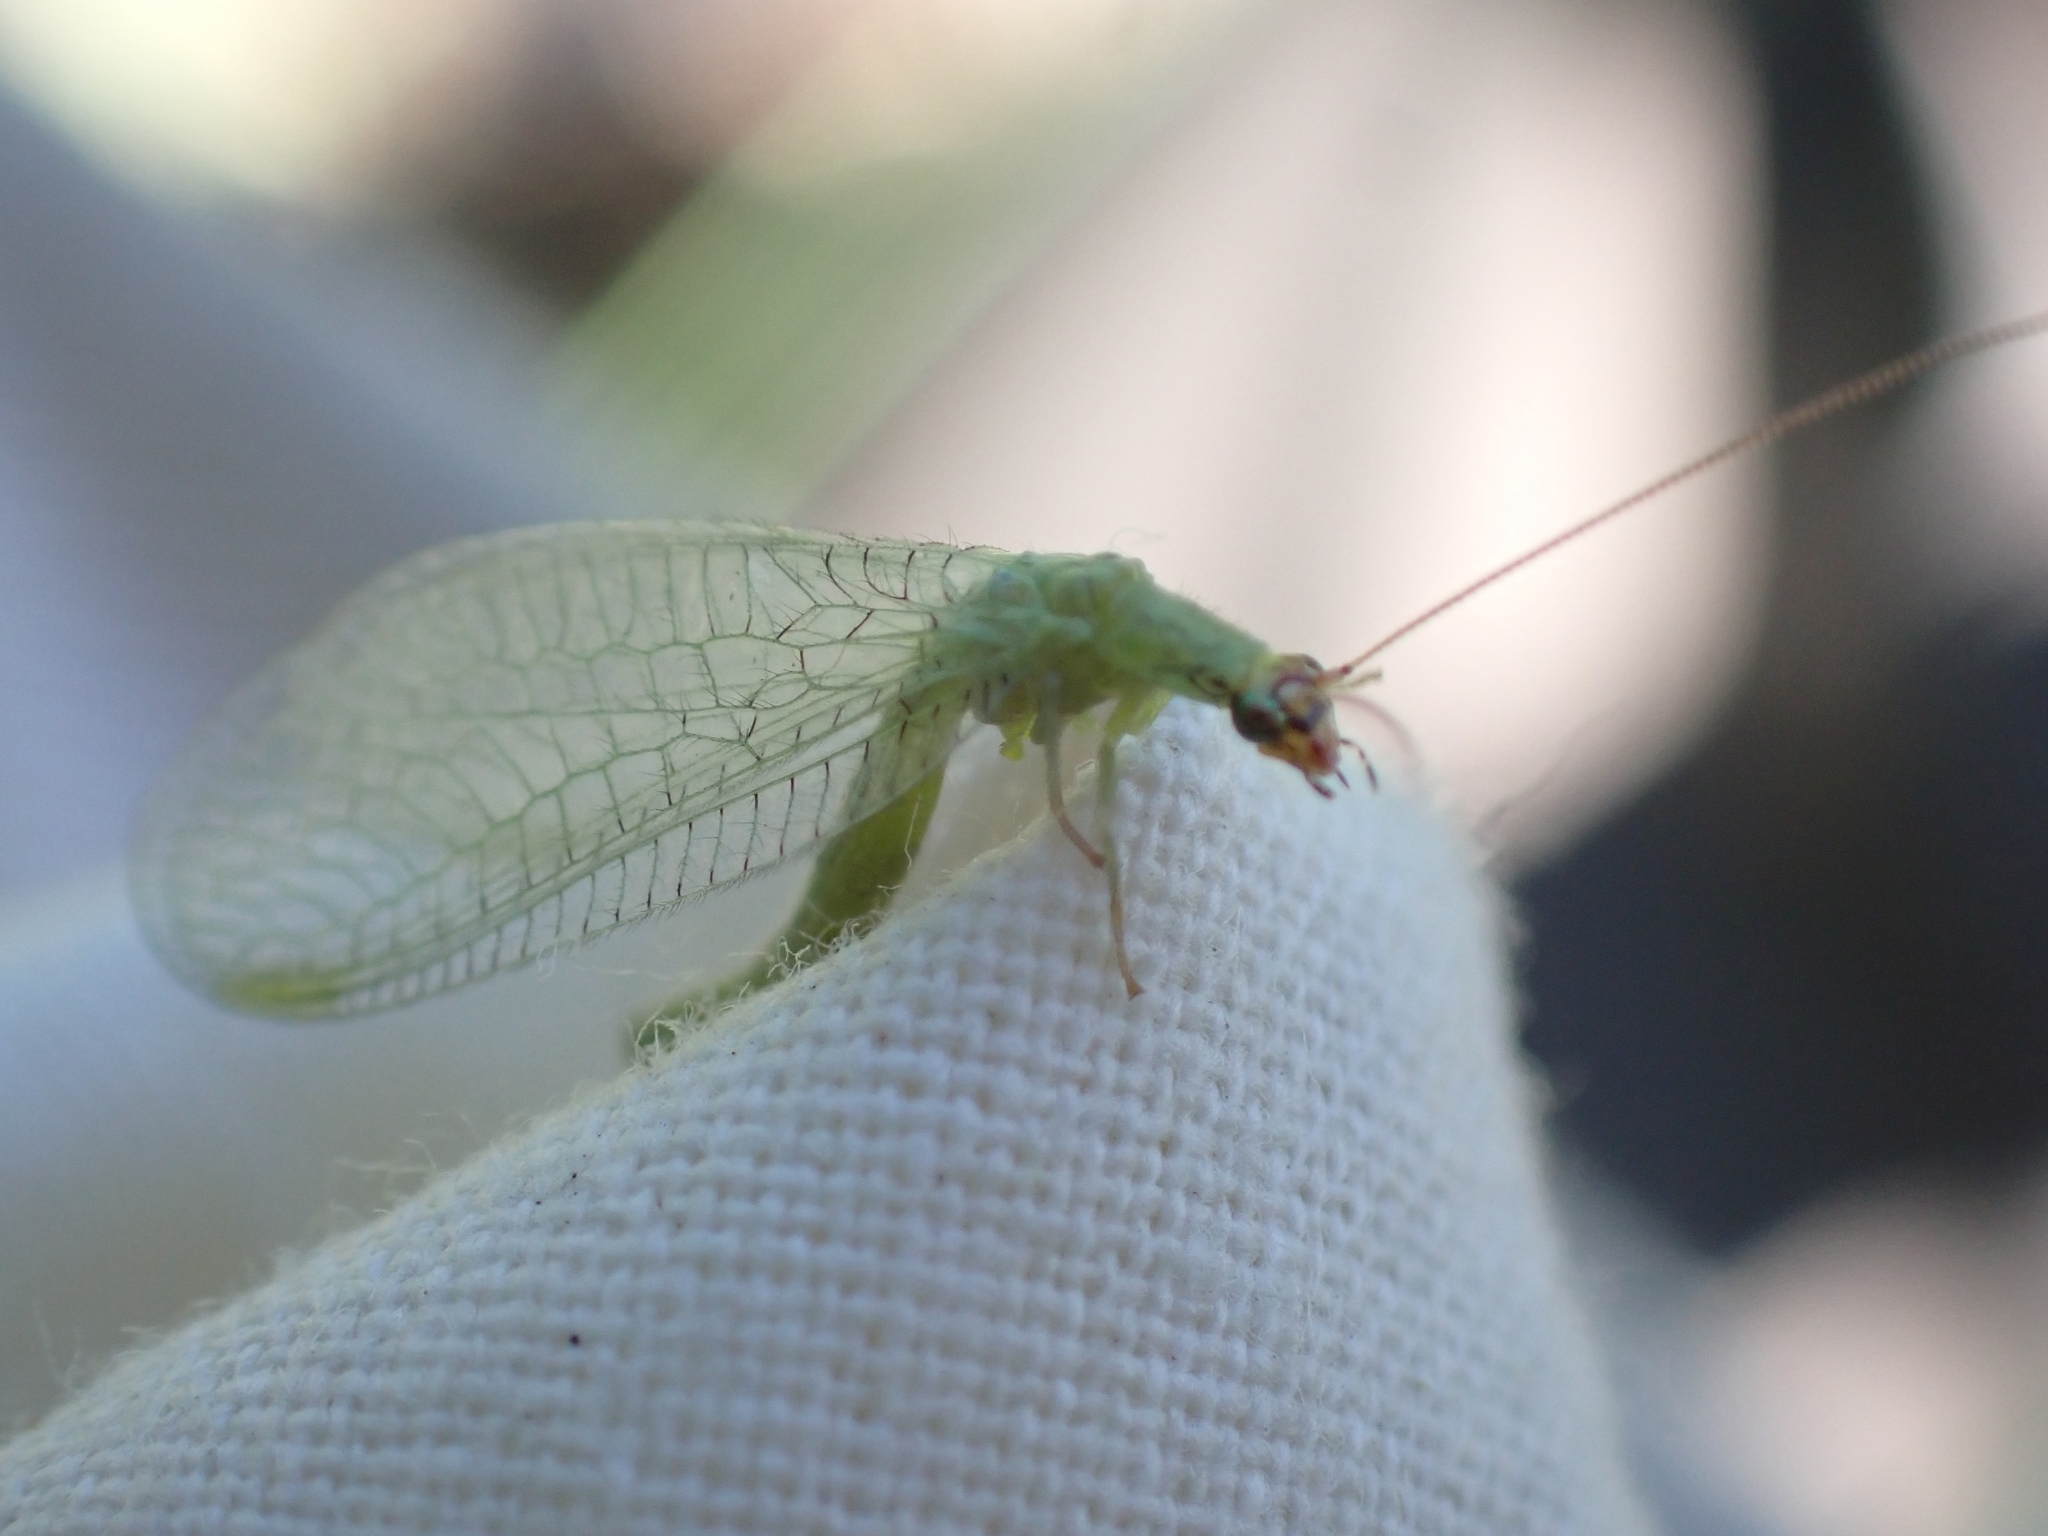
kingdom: Animalia
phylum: Arthropoda
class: Insecta
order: Neuroptera
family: Chrysopidae
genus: Chrysopa
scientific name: Chrysopa oculata
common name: Golden-eyed lacewing
